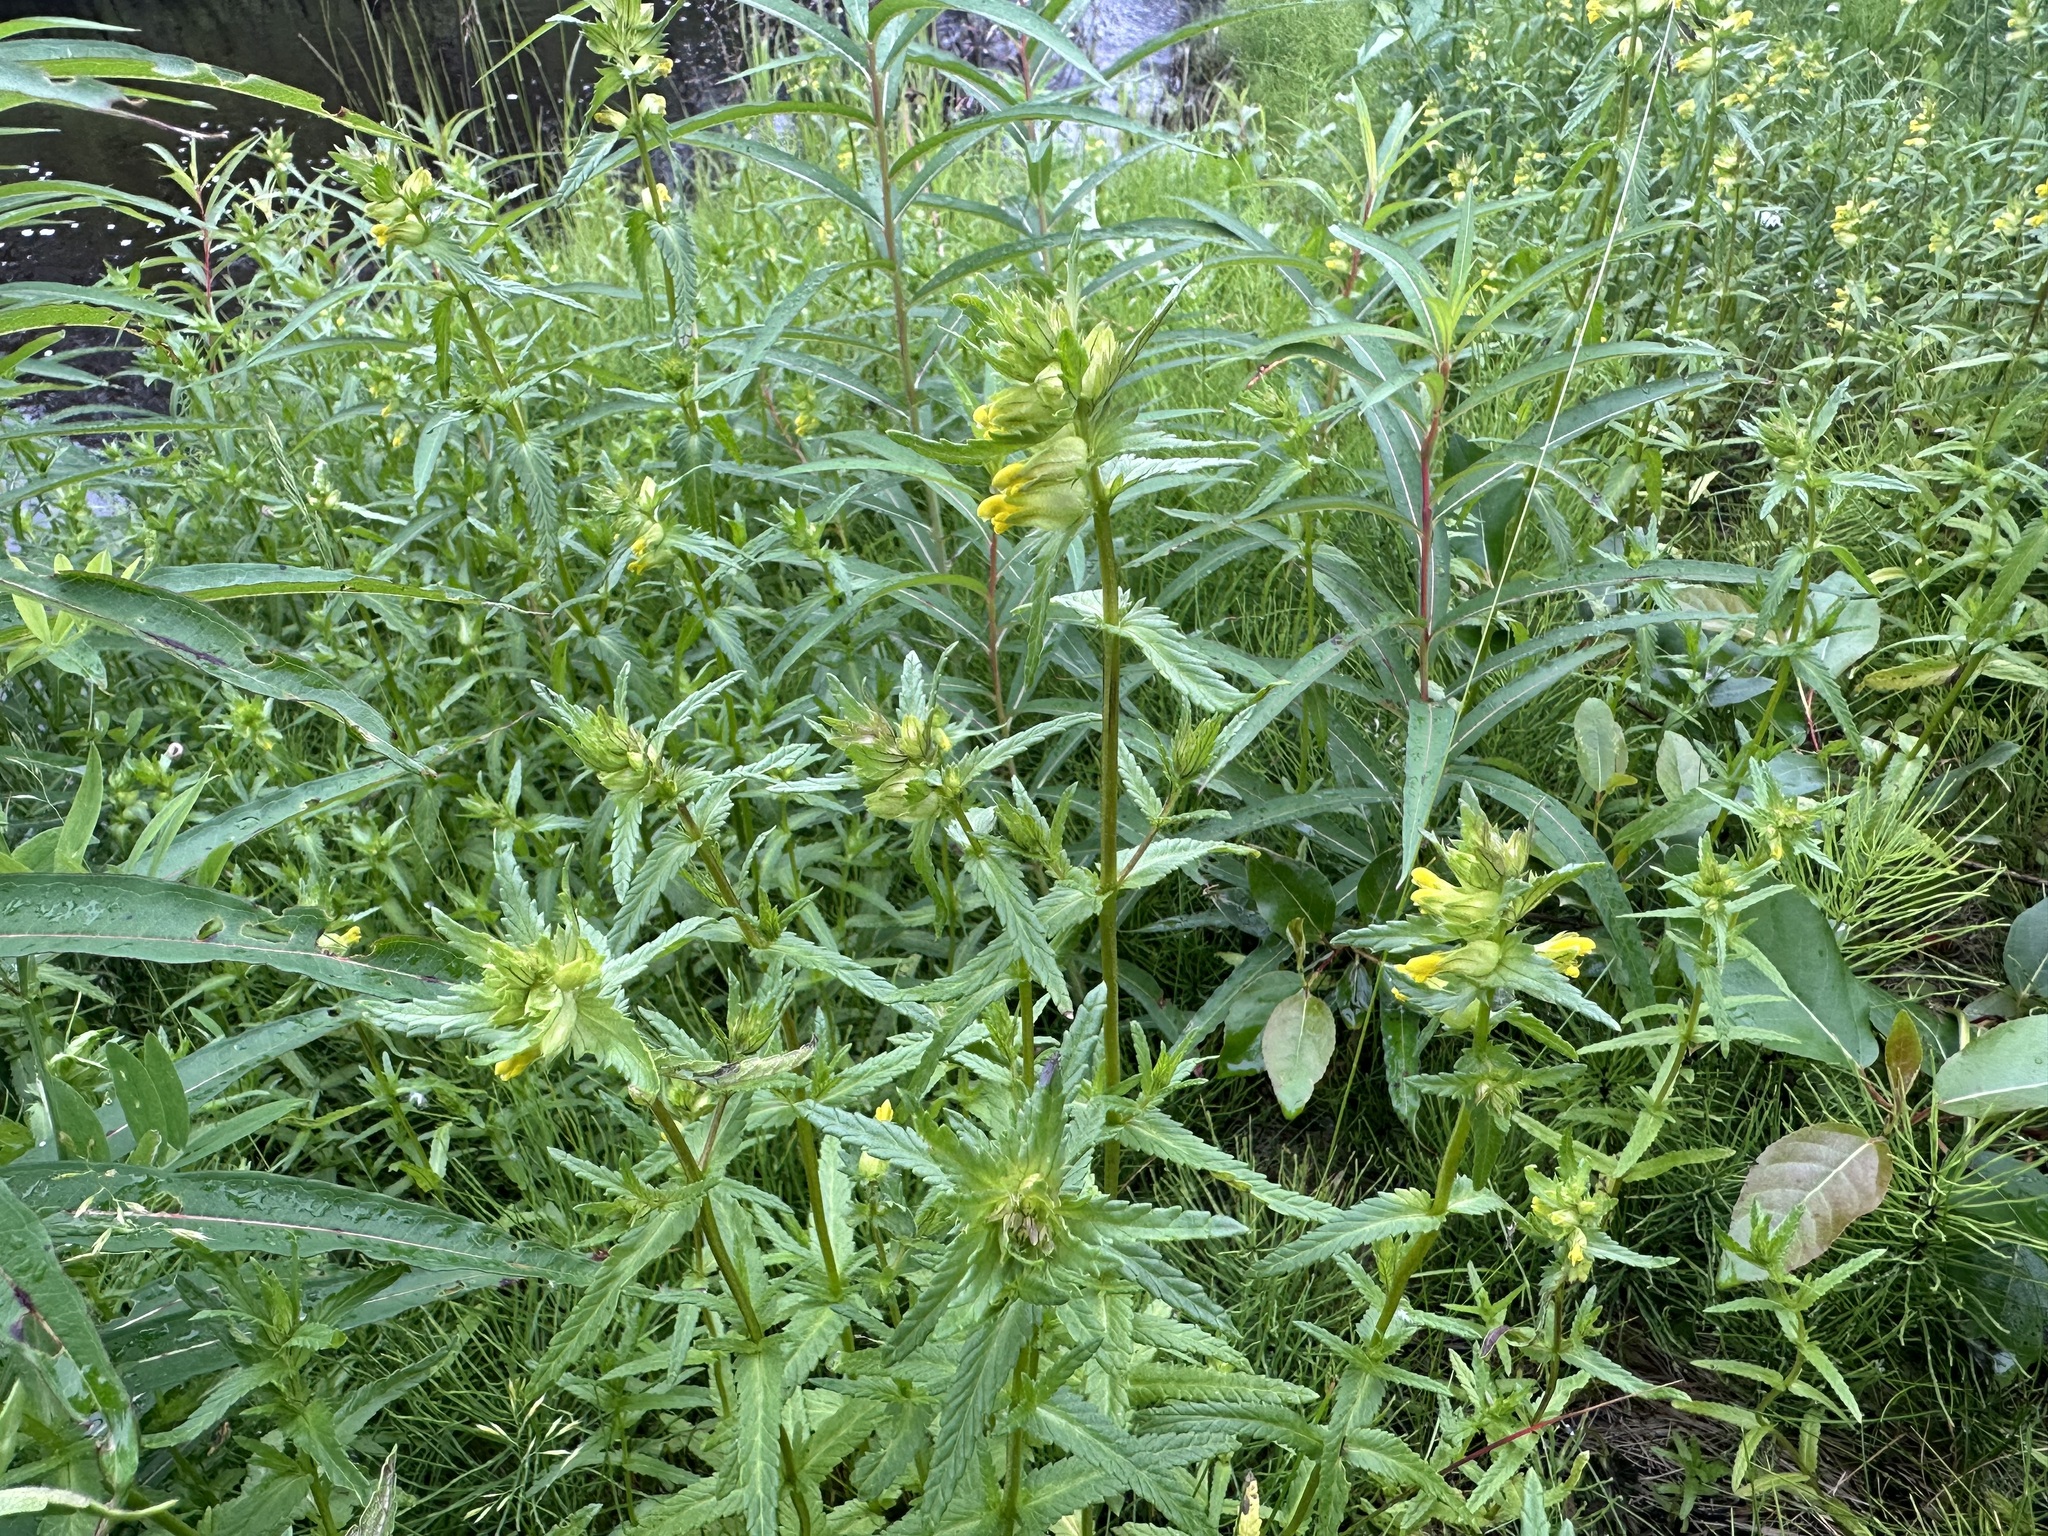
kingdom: Plantae
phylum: Tracheophyta
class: Magnoliopsida
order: Lamiales
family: Orobanchaceae
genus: Rhinanthus
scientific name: Rhinanthus minor
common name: Yellow-rattle
